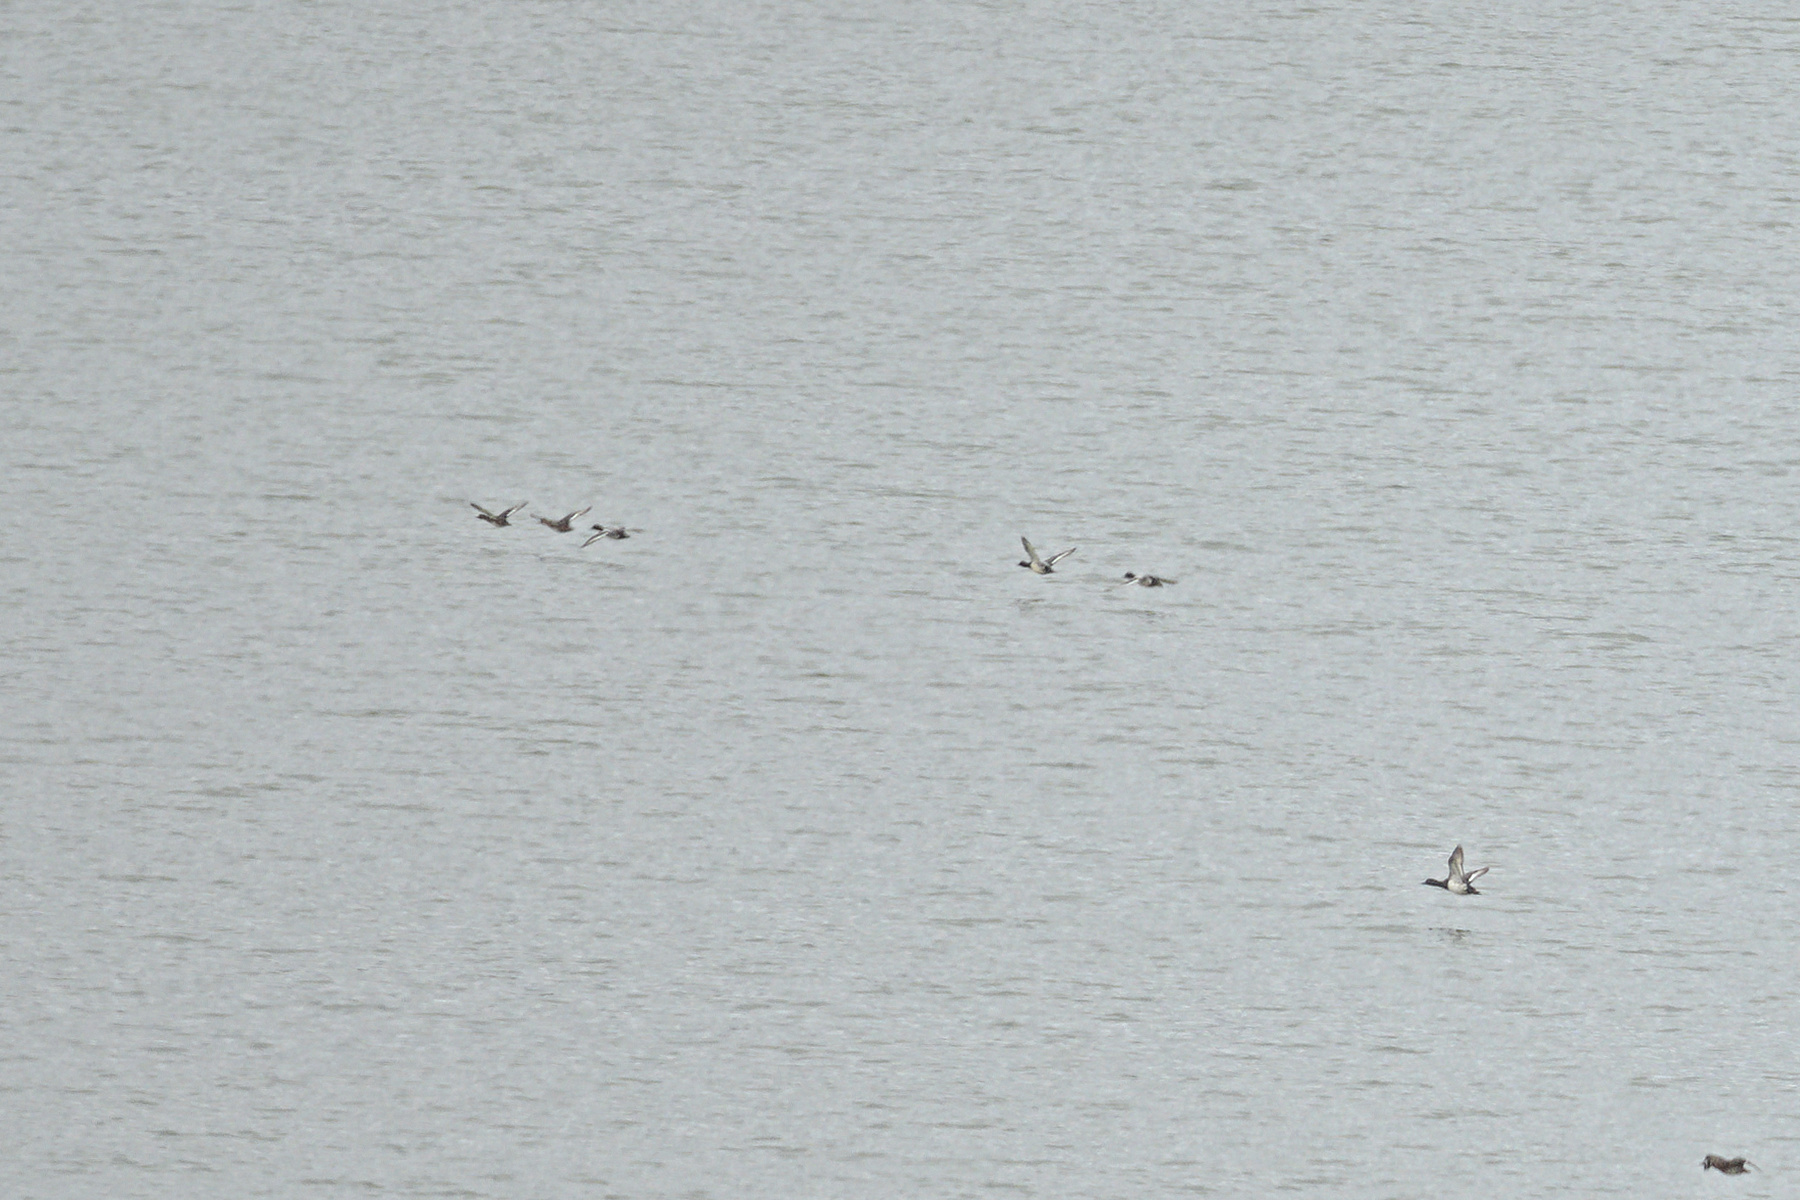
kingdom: Animalia
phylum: Chordata
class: Aves
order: Anseriformes
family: Anatidae
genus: Aythya
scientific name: Aythya marila
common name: Greater scaup
